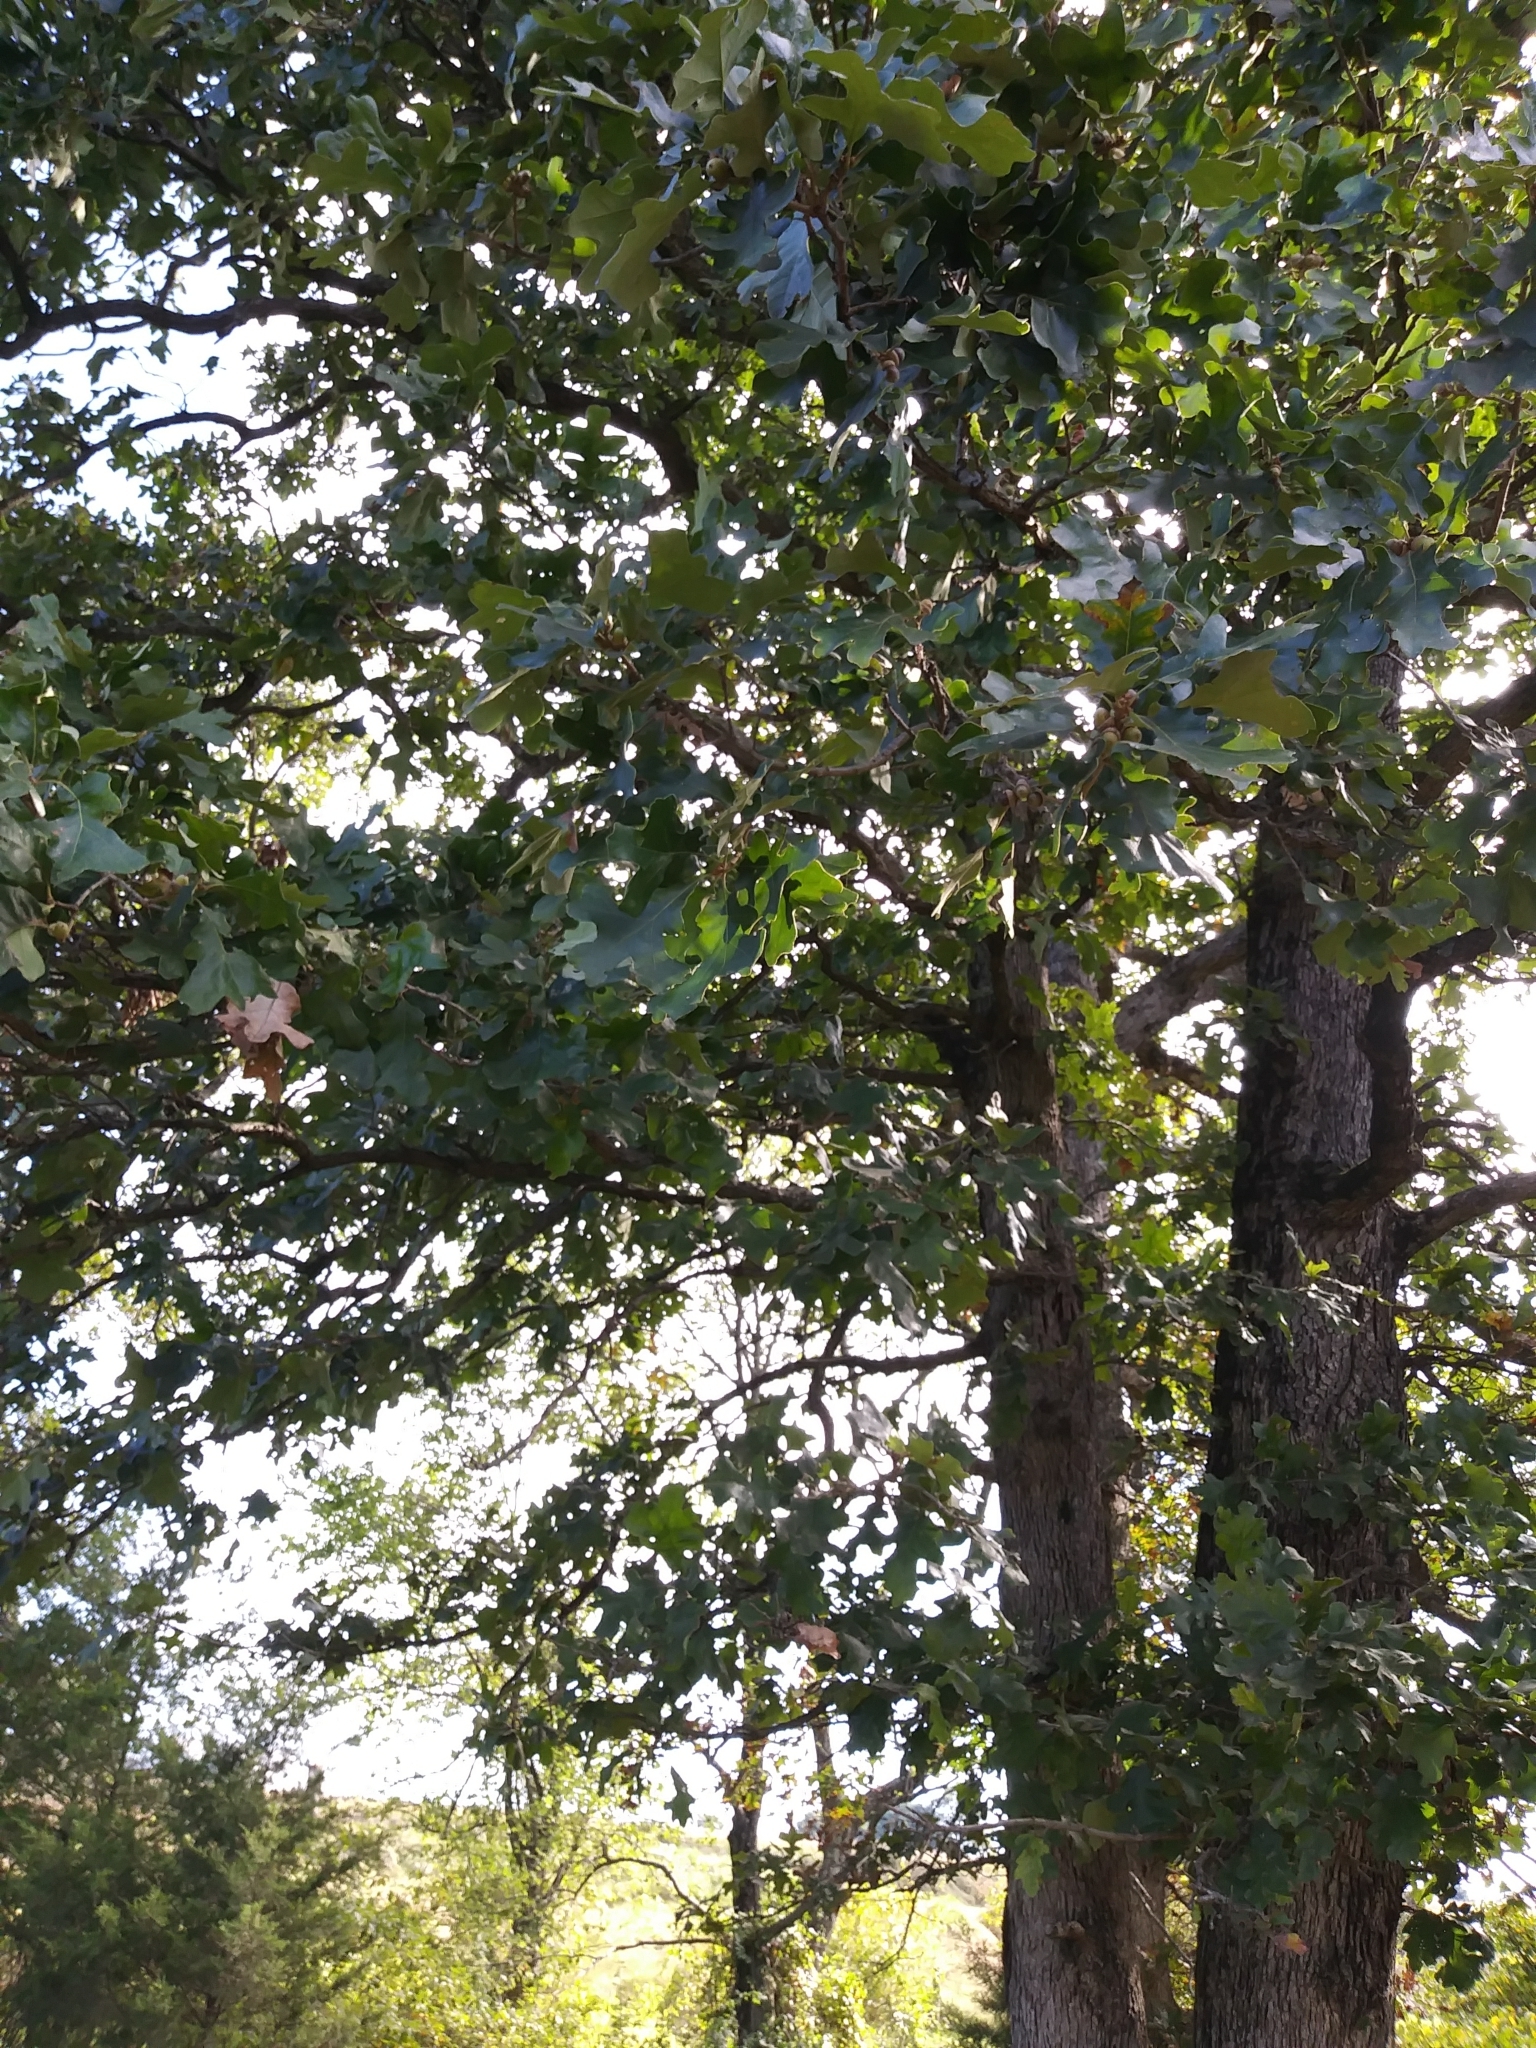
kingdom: Plantae
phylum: Tracheophyta
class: Magnoliopsida
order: Fagales
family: Fagaceae
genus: Quercus
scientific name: Quercus stellata
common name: Post oak
